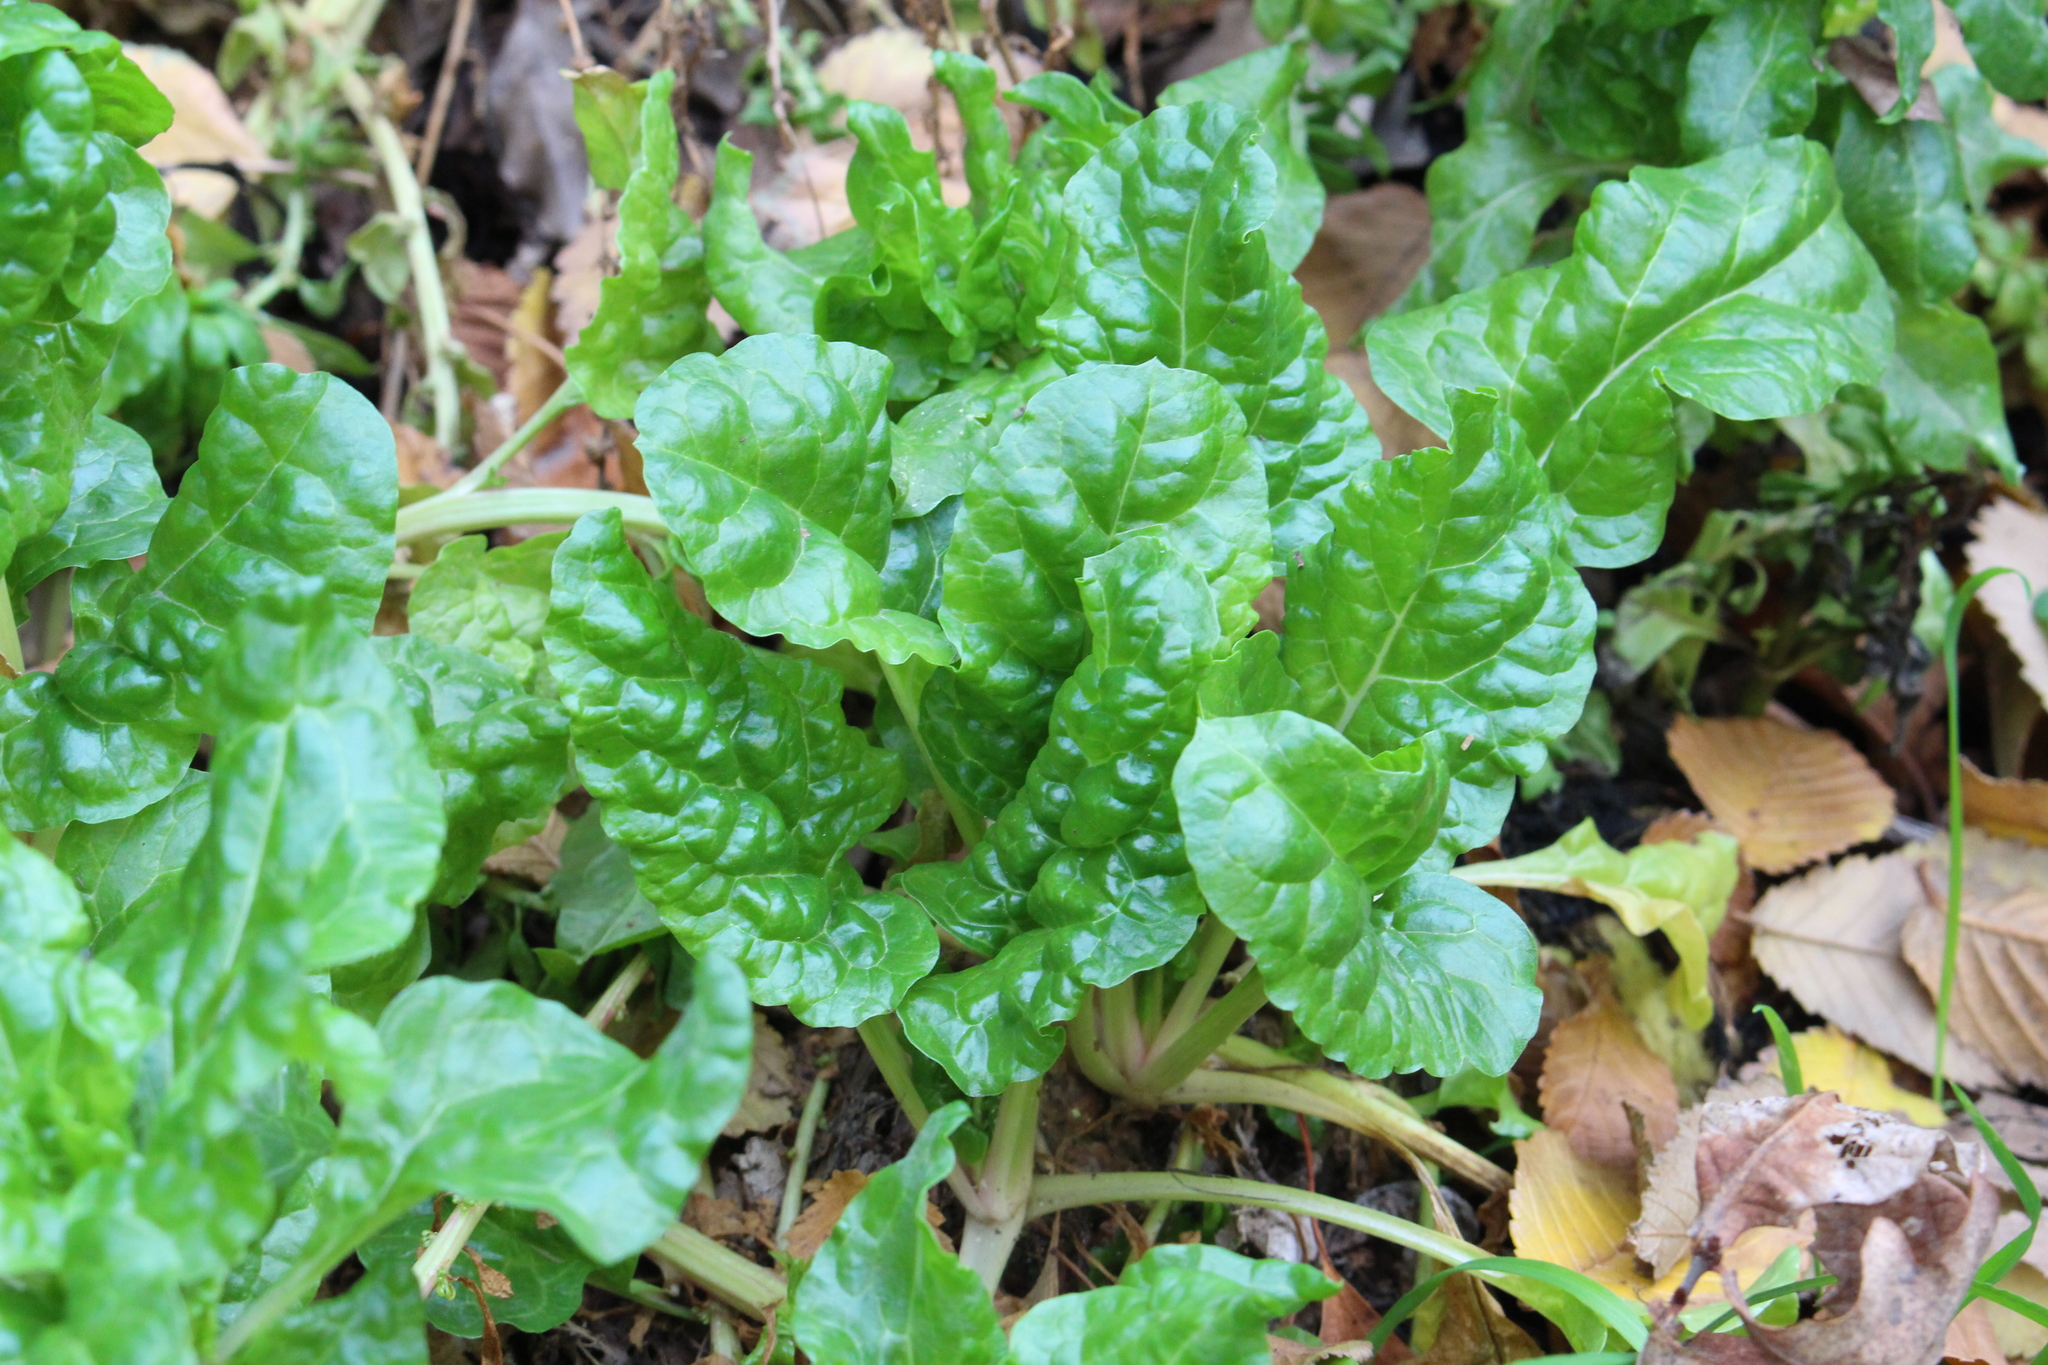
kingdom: Plantae
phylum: Tracheophyta
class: Magnoliopsida
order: Caryophyllales
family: Amaranthaceae
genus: Beta
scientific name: Beta vulgaris
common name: Beet
